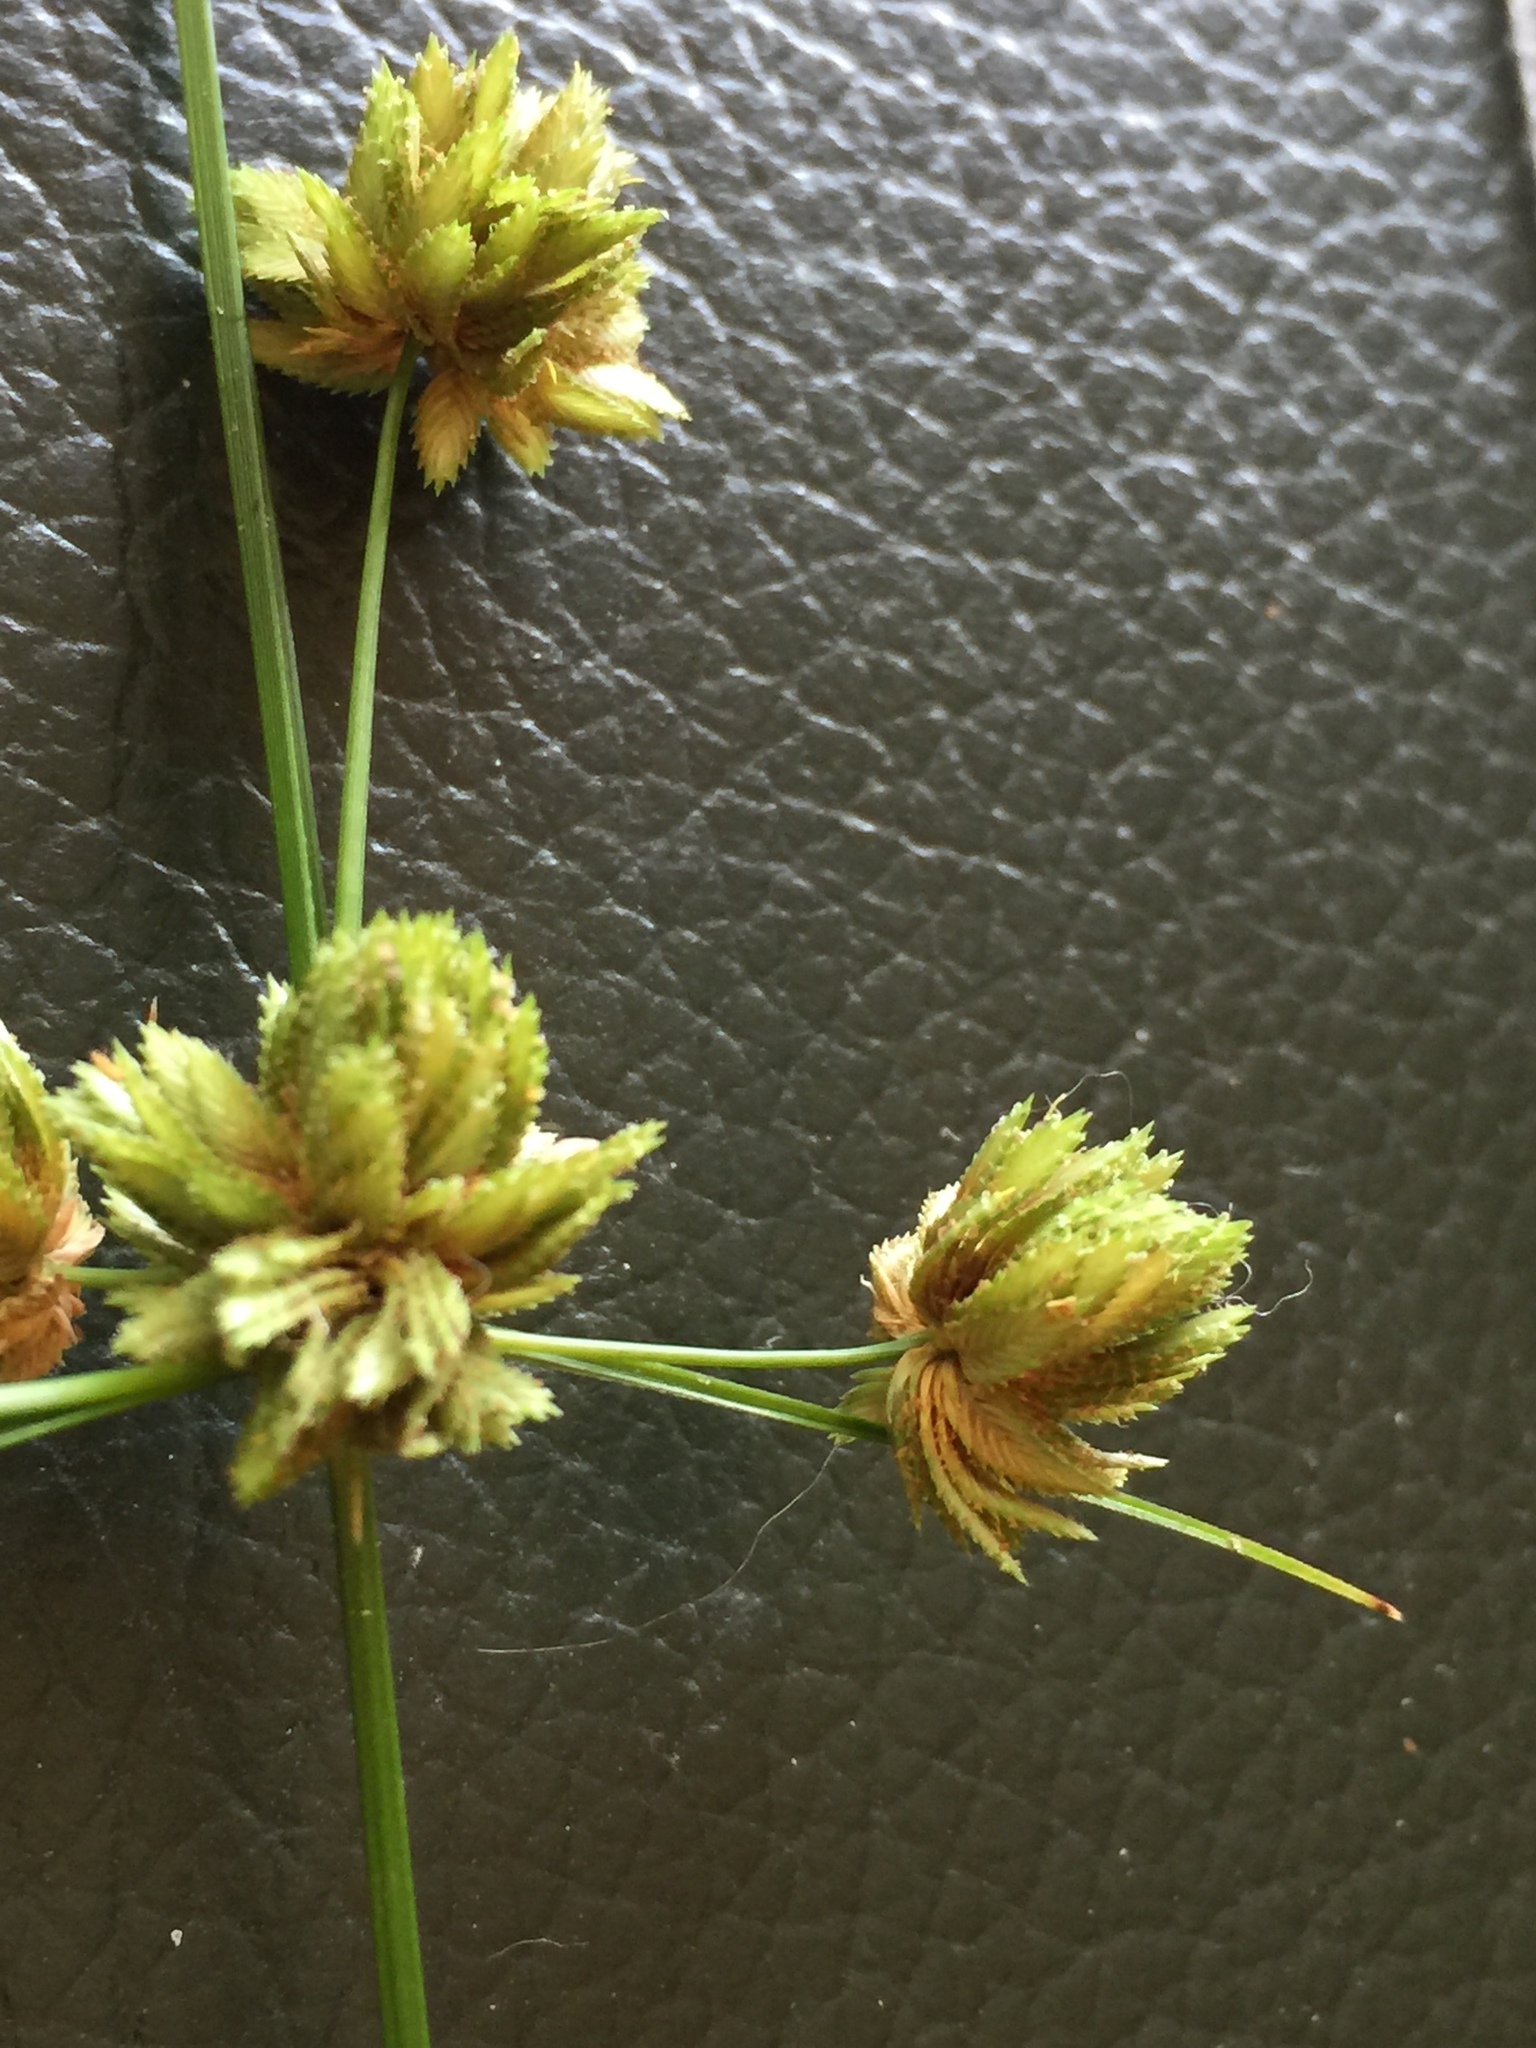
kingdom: Plantae
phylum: Tracheophyta
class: Liliopsida
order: Poales
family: Cyperaceae
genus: Cyperus
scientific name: Cyperus acuminatus
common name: Short-pointed cyperus
